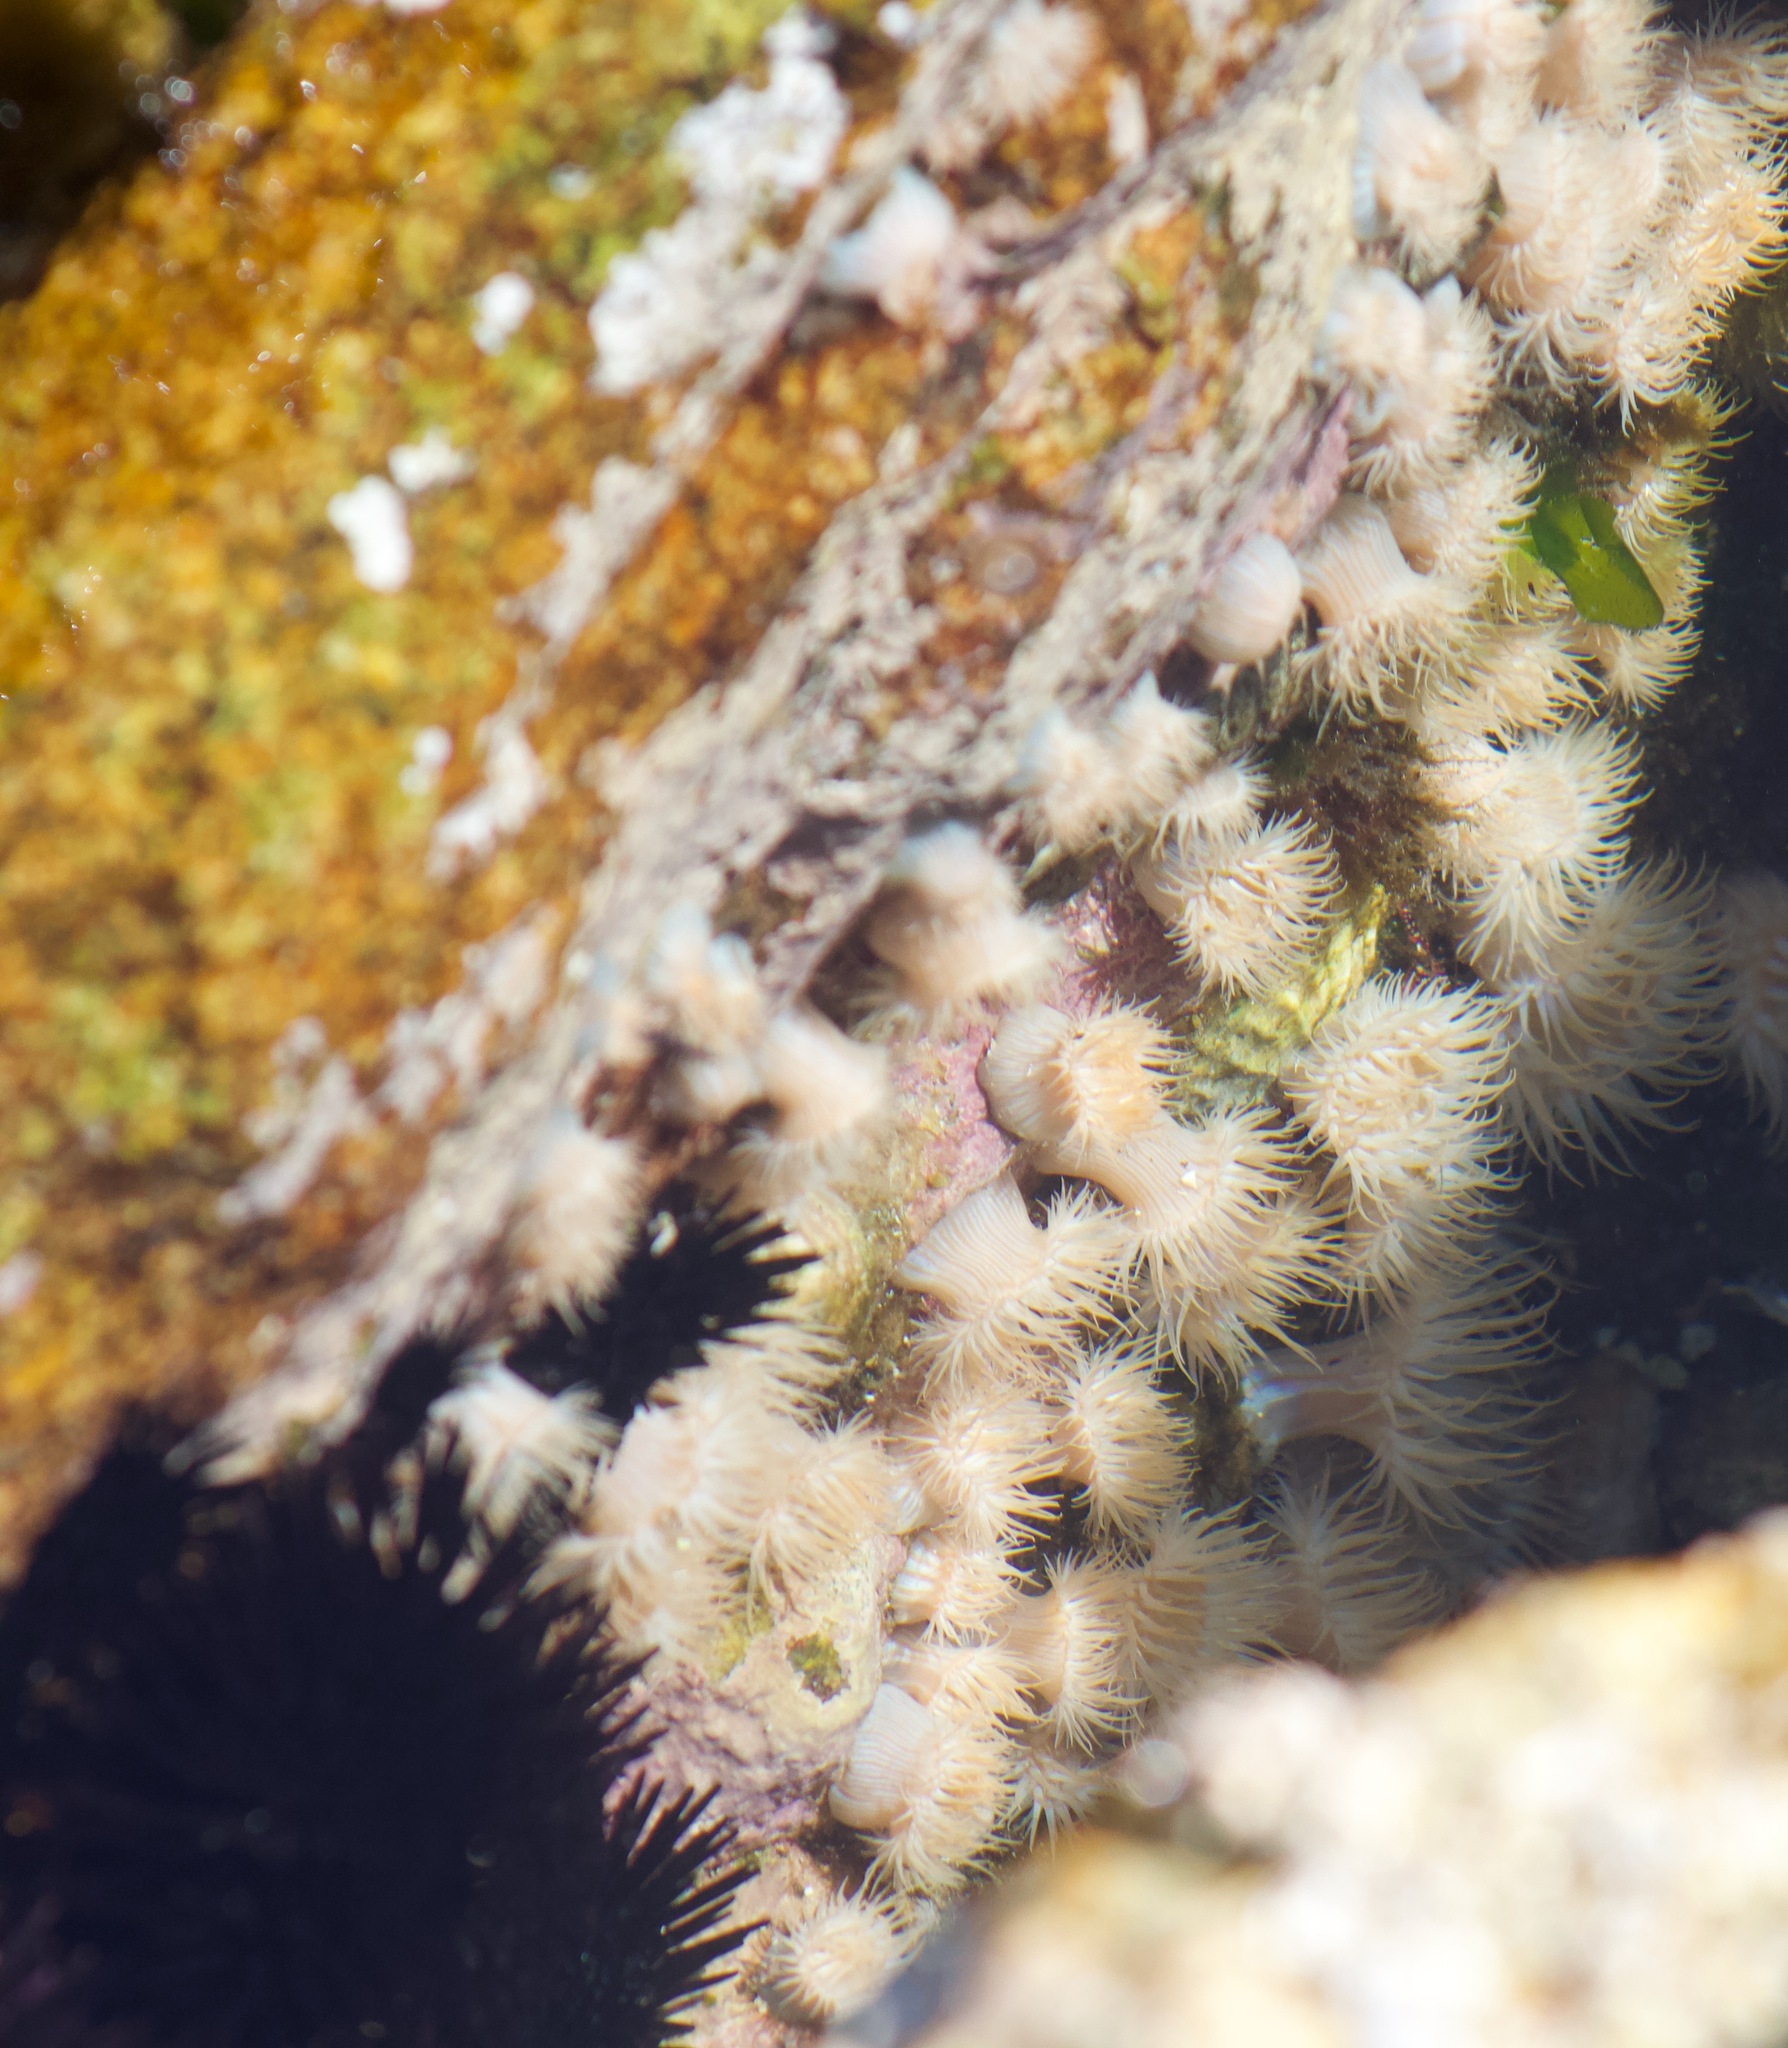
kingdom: Animalia
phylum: Cnidaria
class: Anthozoa
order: Actiniaria
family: Sagartiidae
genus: Anthothoe
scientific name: Anthothoe chilensis
